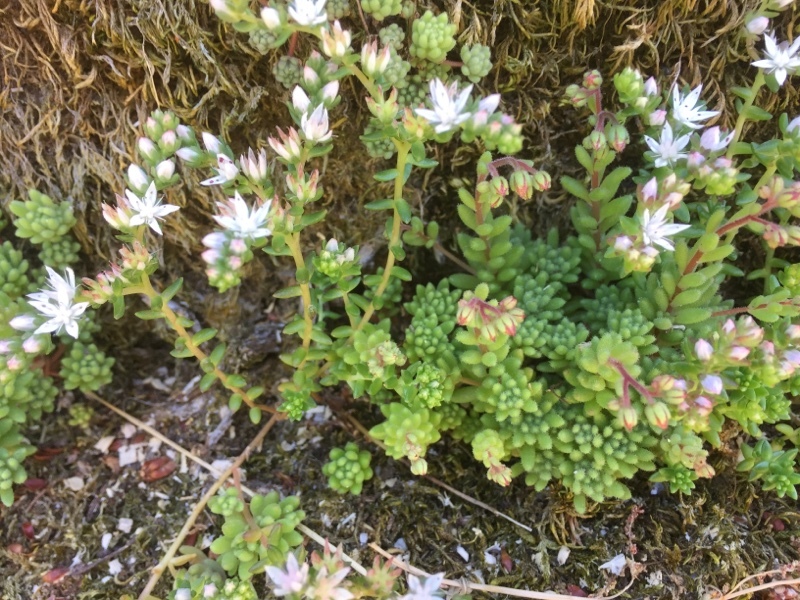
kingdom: Plantae
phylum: Tracheophyta
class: Magnoliopsida
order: Saxifragales
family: Crassulaceae
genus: Sedum
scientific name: Sedum hirsutum
